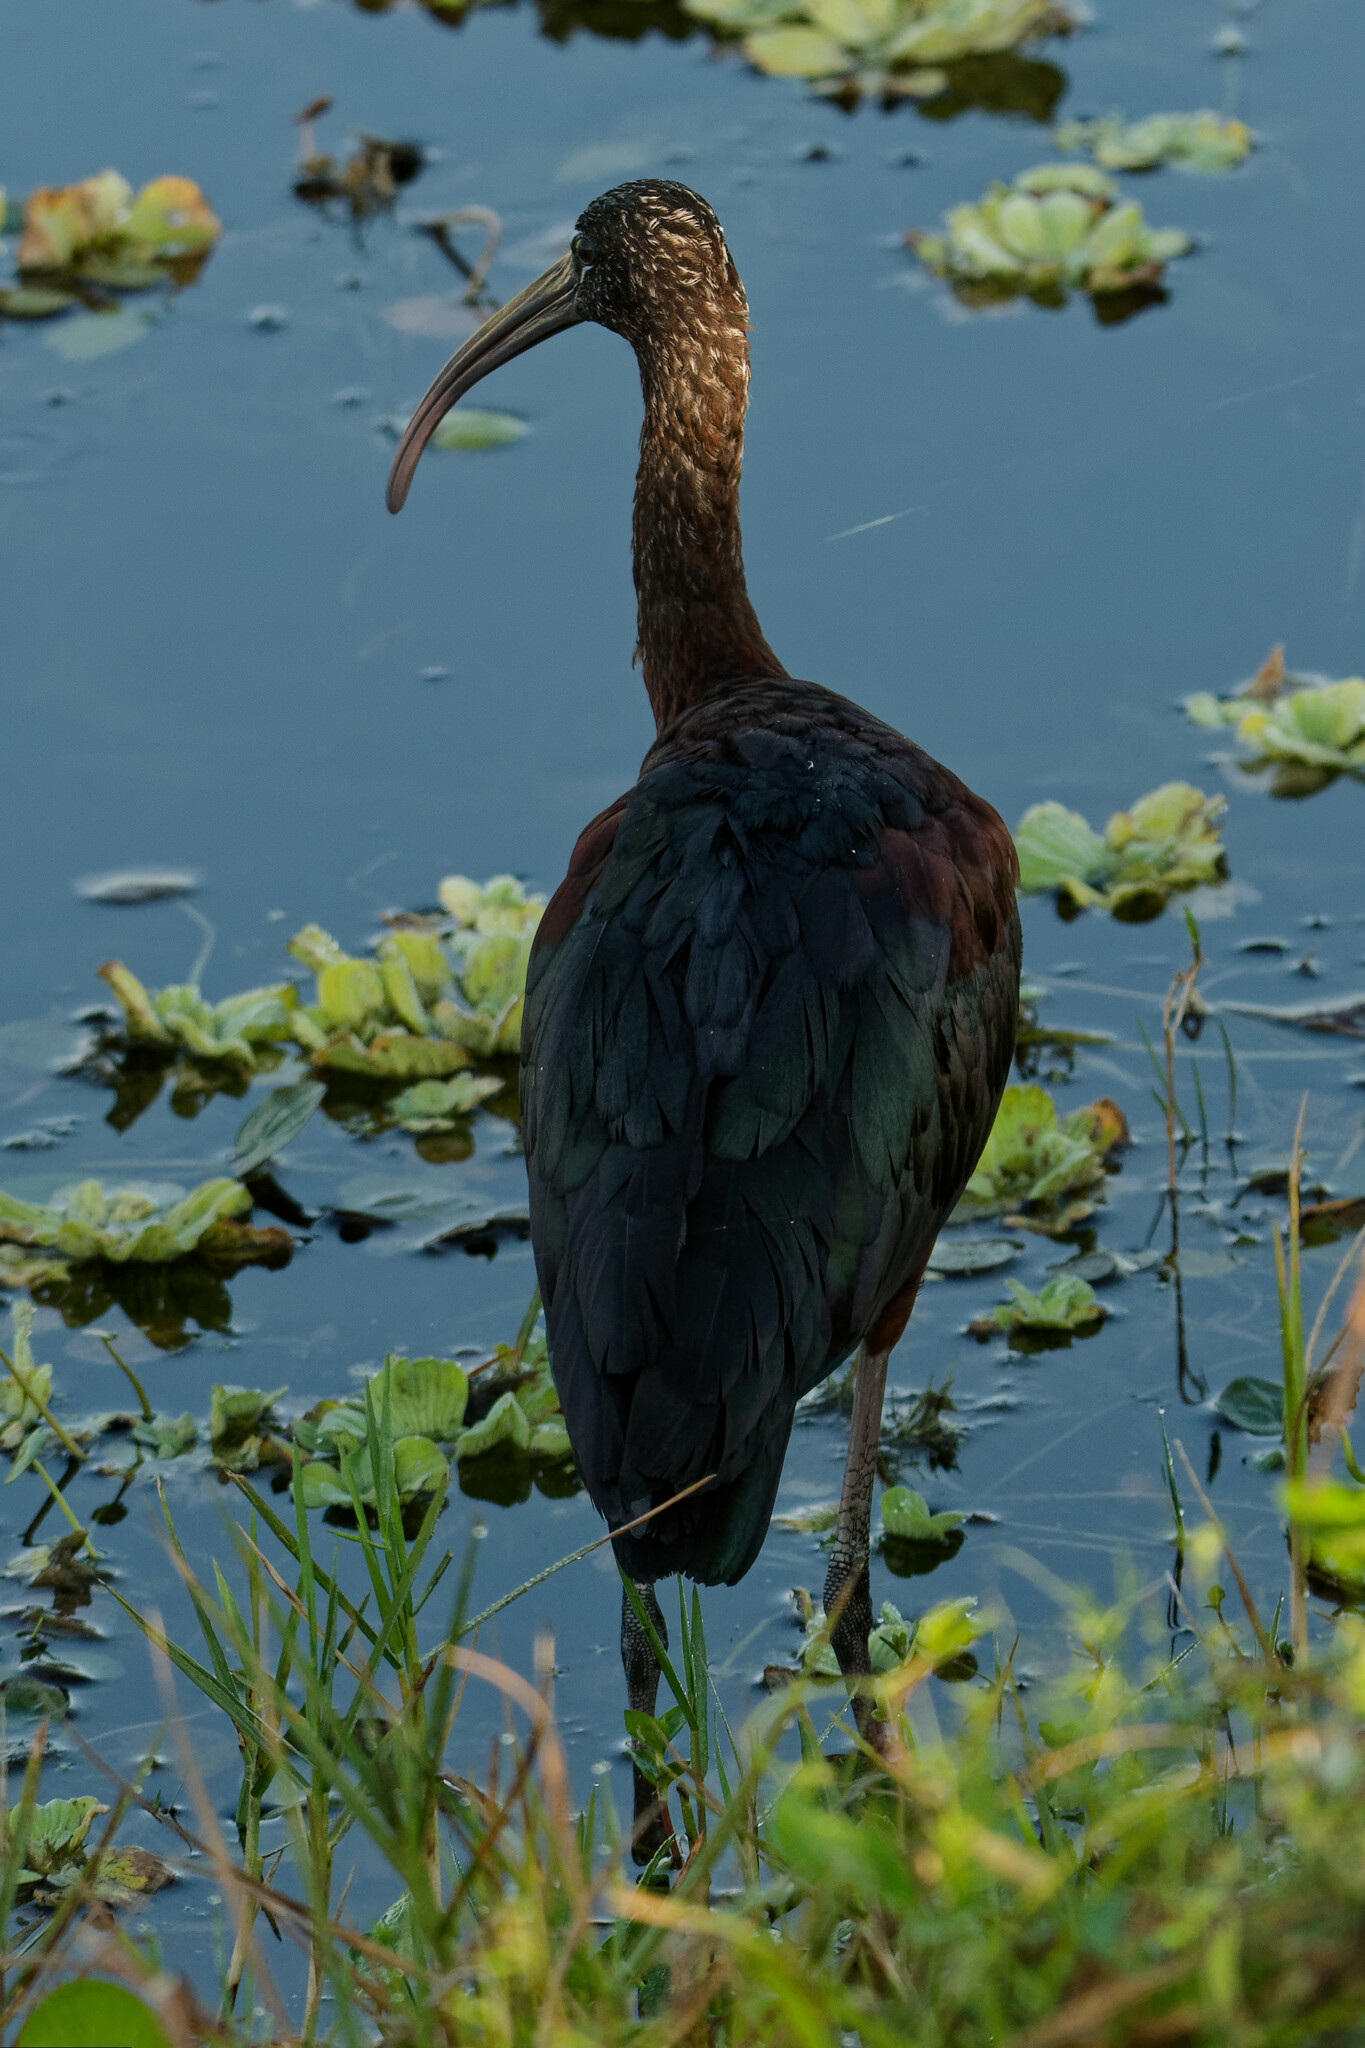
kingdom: Animalia
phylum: Chordata
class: Aves
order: Pelecaniformes
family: Threskiornithidae
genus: Plegadis
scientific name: Plegadis falcinellus
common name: Glossy ibis
